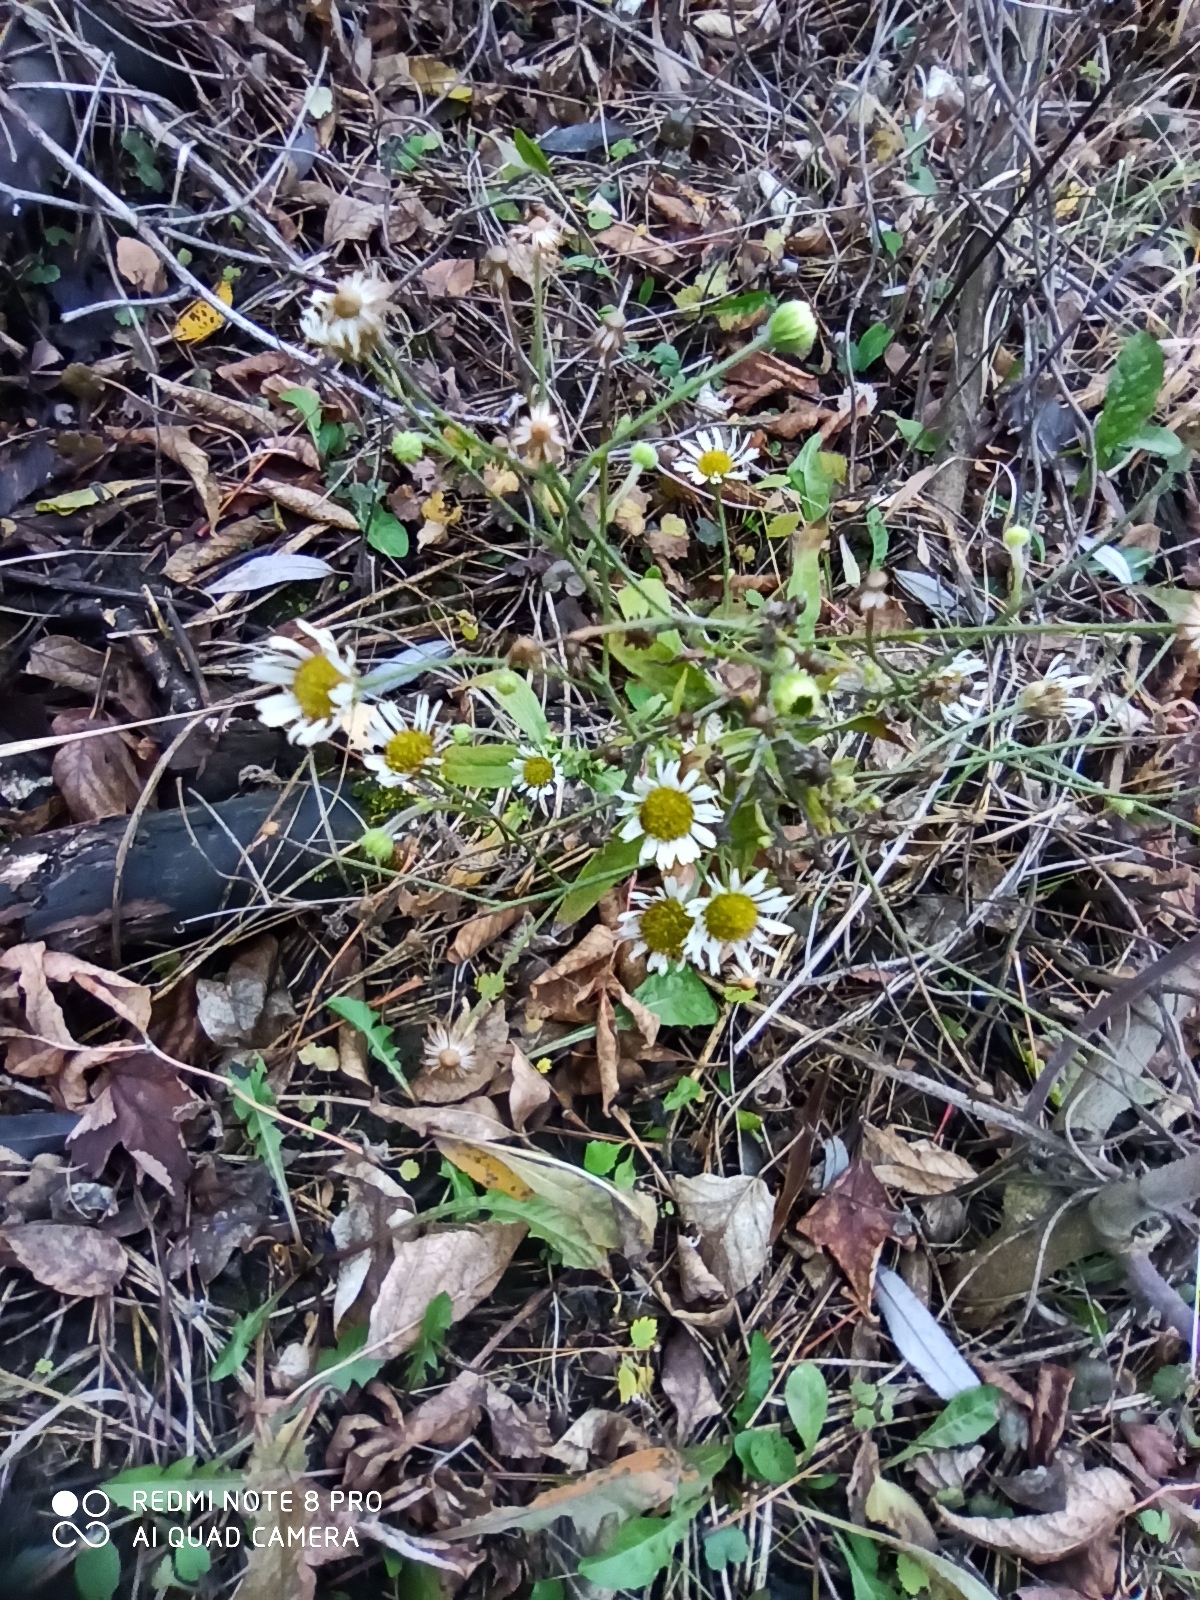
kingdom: Plantae
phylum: Tracheophyta
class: Magnoliopsida
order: Asterales
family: Asteraceae
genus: Erigeron
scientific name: Erigeron annuus
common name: Tall fleabane
